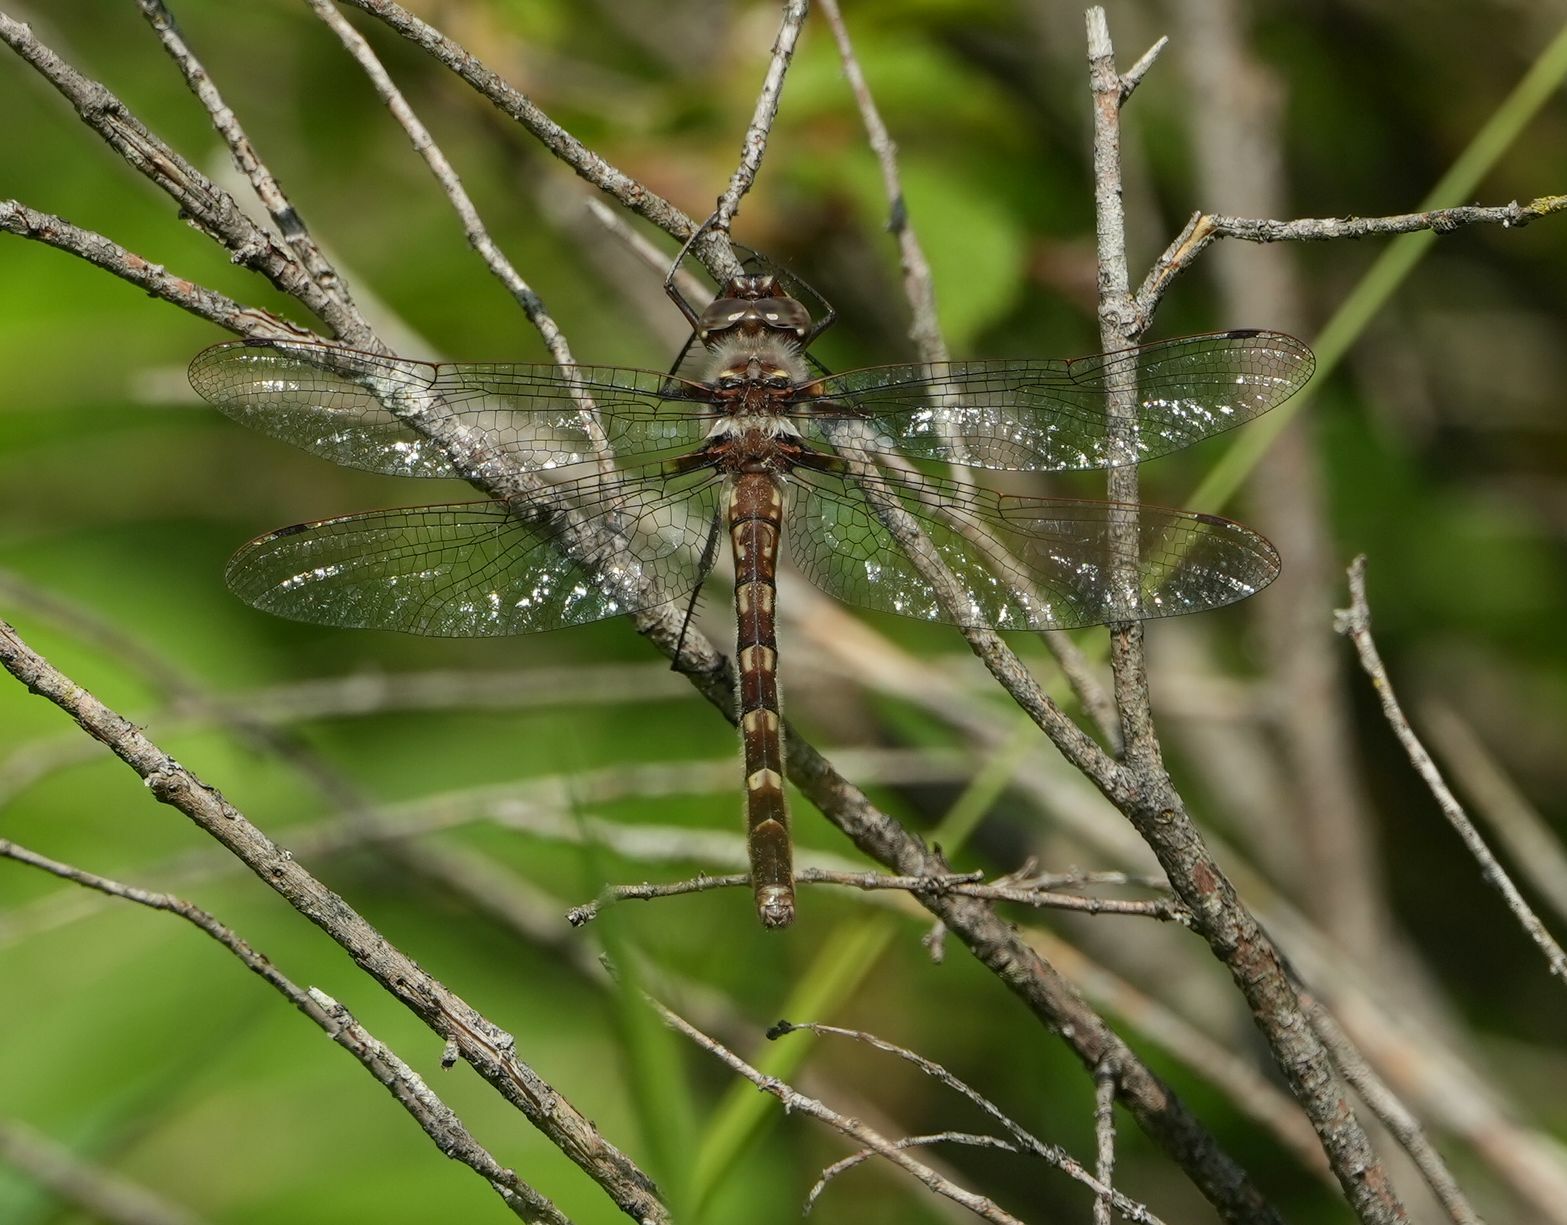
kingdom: Animalia
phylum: Arthropoda
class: Insecta
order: Odonata
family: Macromiidae
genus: Didymops
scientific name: Didymops transversa
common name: Stream cruiser
